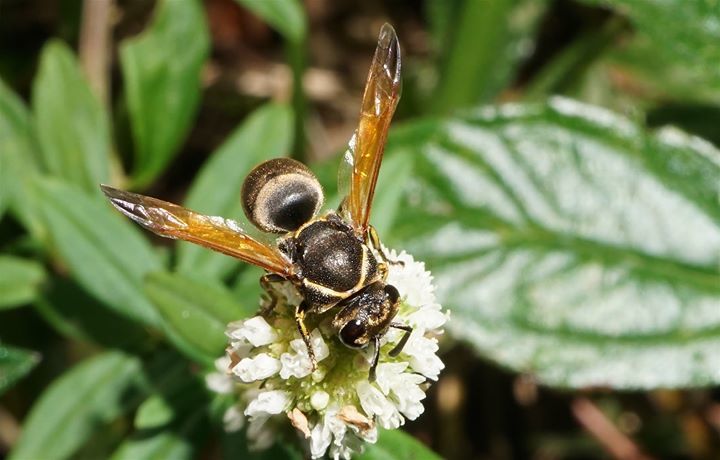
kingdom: Animalia
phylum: Arthropoda
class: Insecta
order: Hymenoptera
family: Eumenidae
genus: Pachodynerus
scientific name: Pachodynerus nasidens
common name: Key hole wasp
